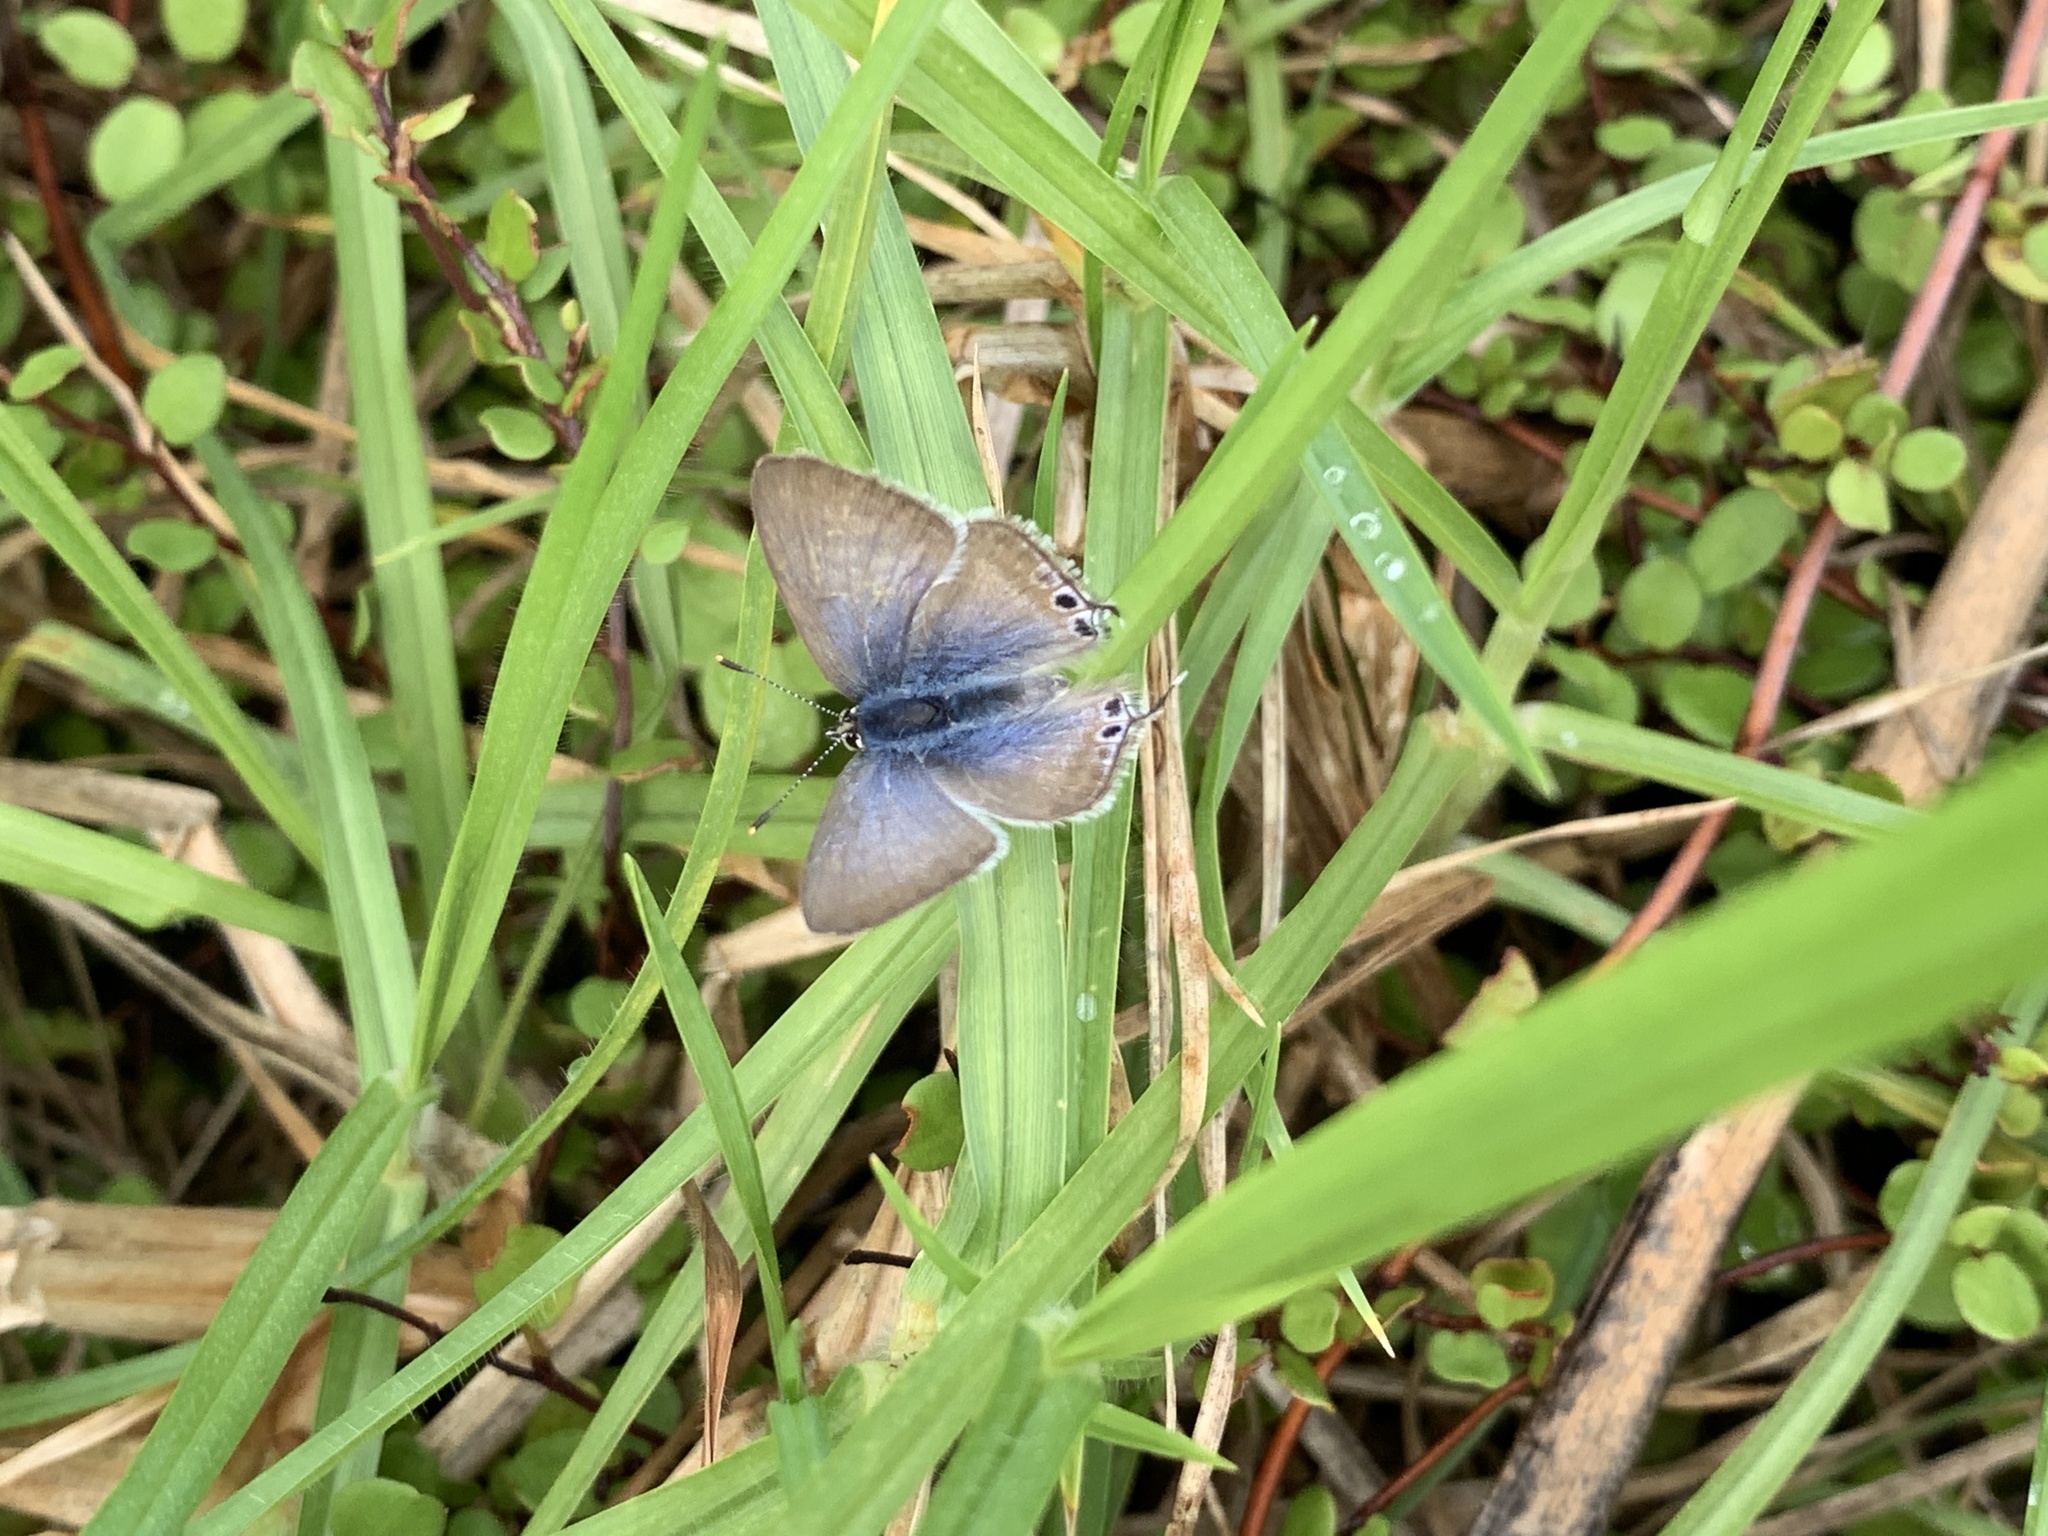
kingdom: Animalia
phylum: Arthropoda
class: Insecta
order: Lepidoptera
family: Lycaenidae
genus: Lampides
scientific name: Lampides boeticus
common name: Long-tailed blue
